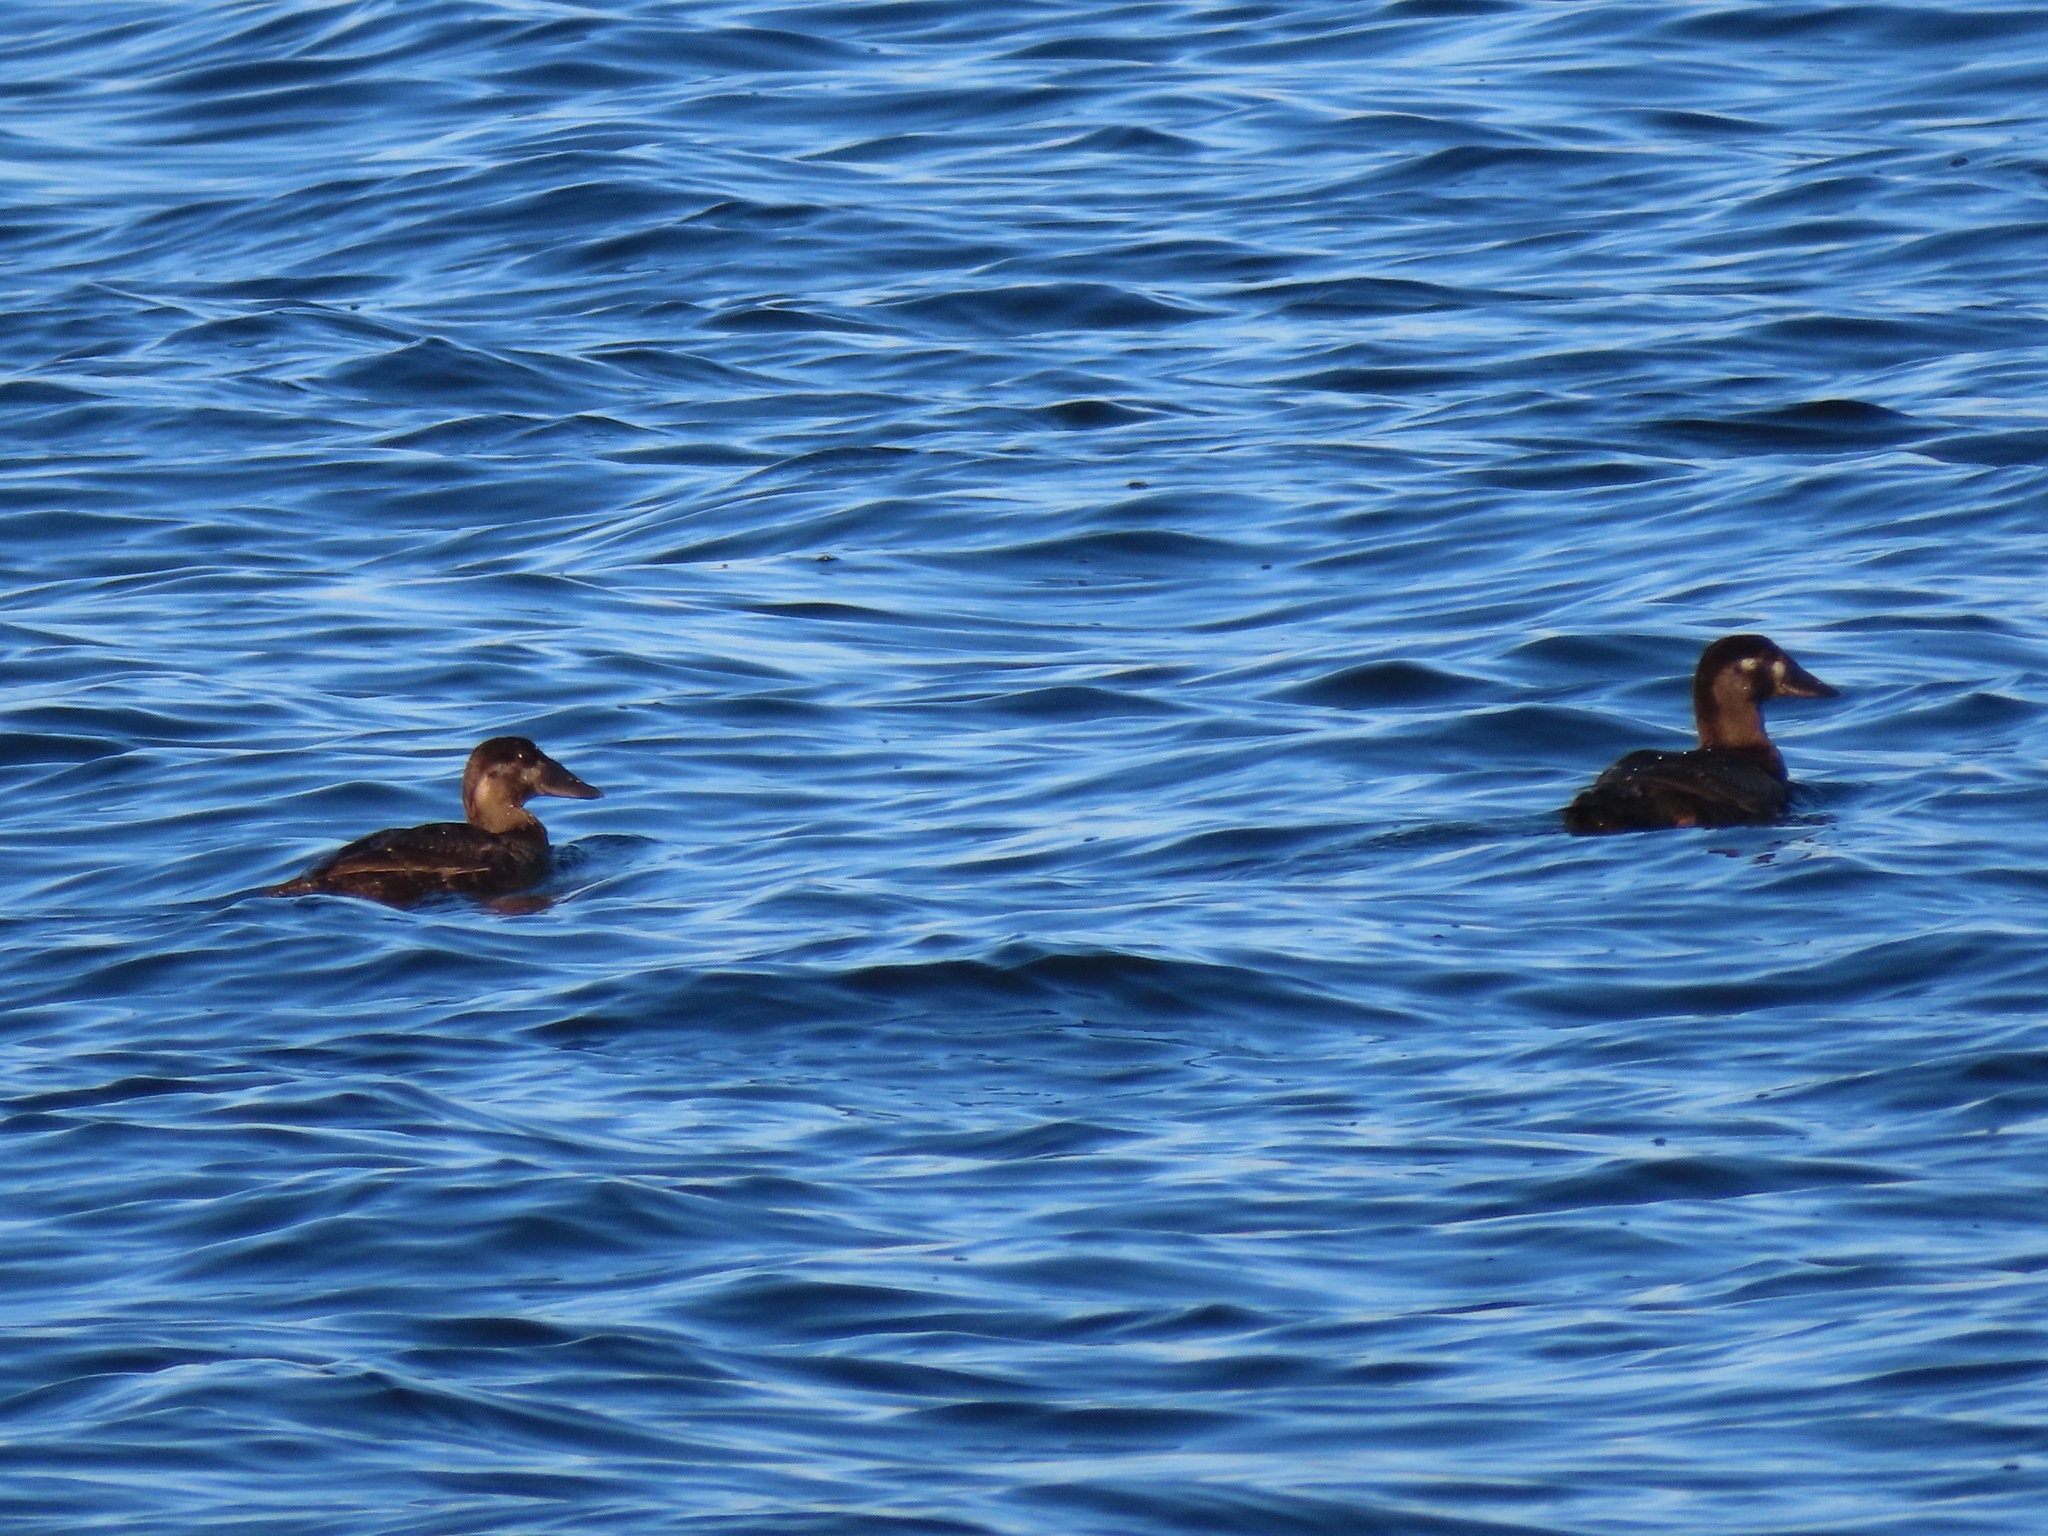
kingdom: Animalia
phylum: Chordata
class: Aves
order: Anseriformes
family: Anatidae
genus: Melanitta
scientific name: Melanitta perspicillata
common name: Surf scoter
